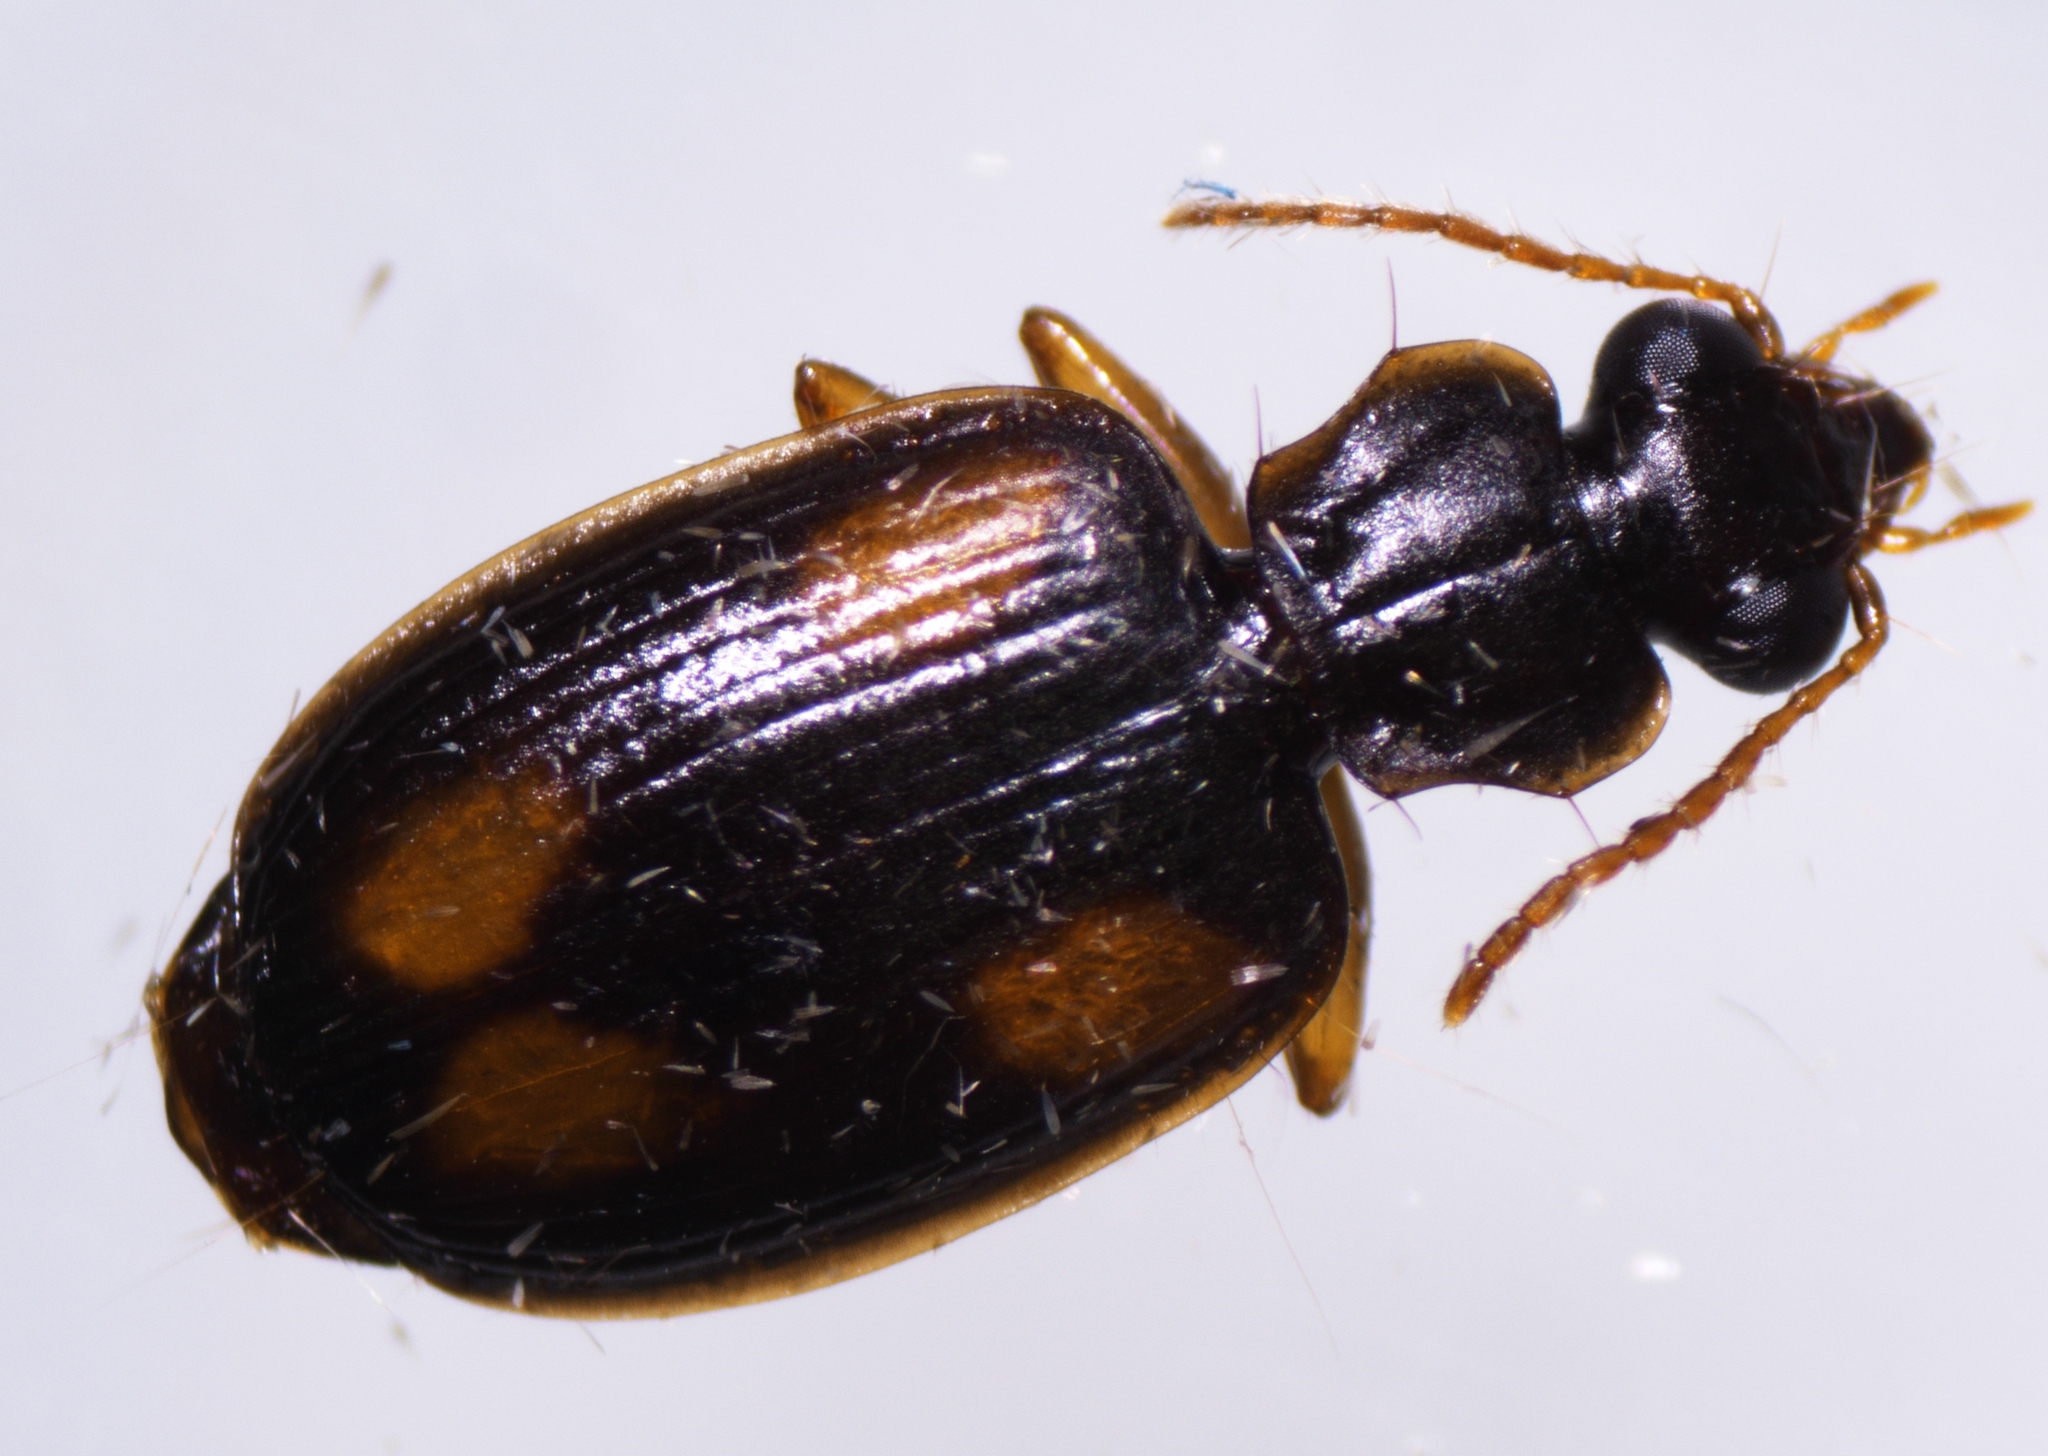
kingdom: Animalia
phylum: Arthropoda
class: Insecta
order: Coleoptera
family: Carabidae
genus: Mochtherus
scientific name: Mochtherus tetraspilotus
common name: Asian ground beetle
